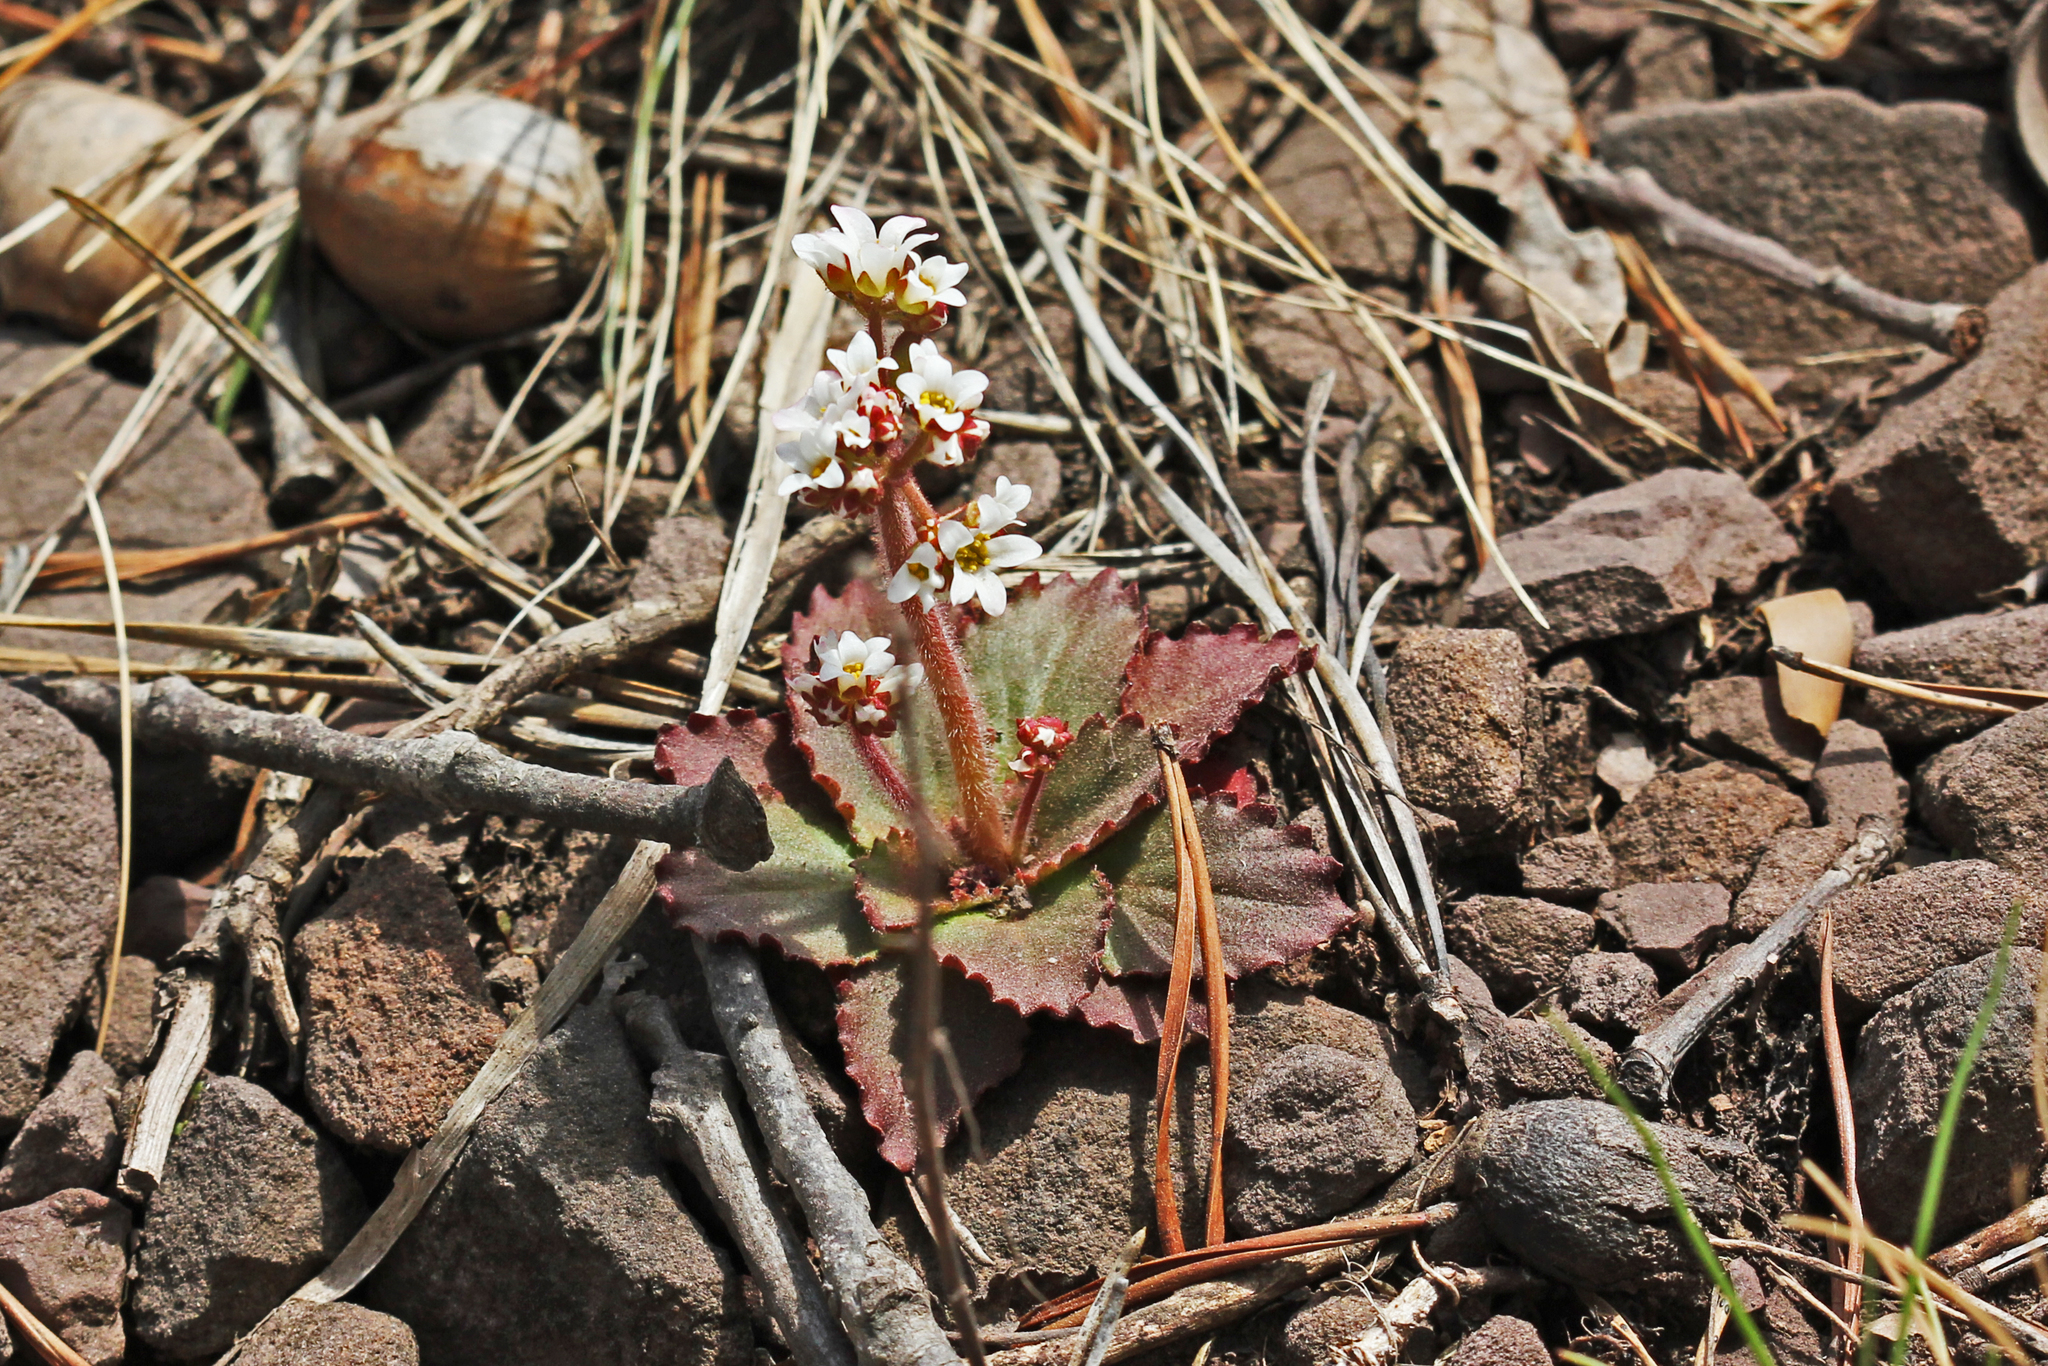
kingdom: Plantae
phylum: Tracheophyta
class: Magnoliopsida
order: Saxifragales
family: Saxifragaceae
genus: Micranthes
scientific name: Micranthes virginiensis
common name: Early saxifrage
